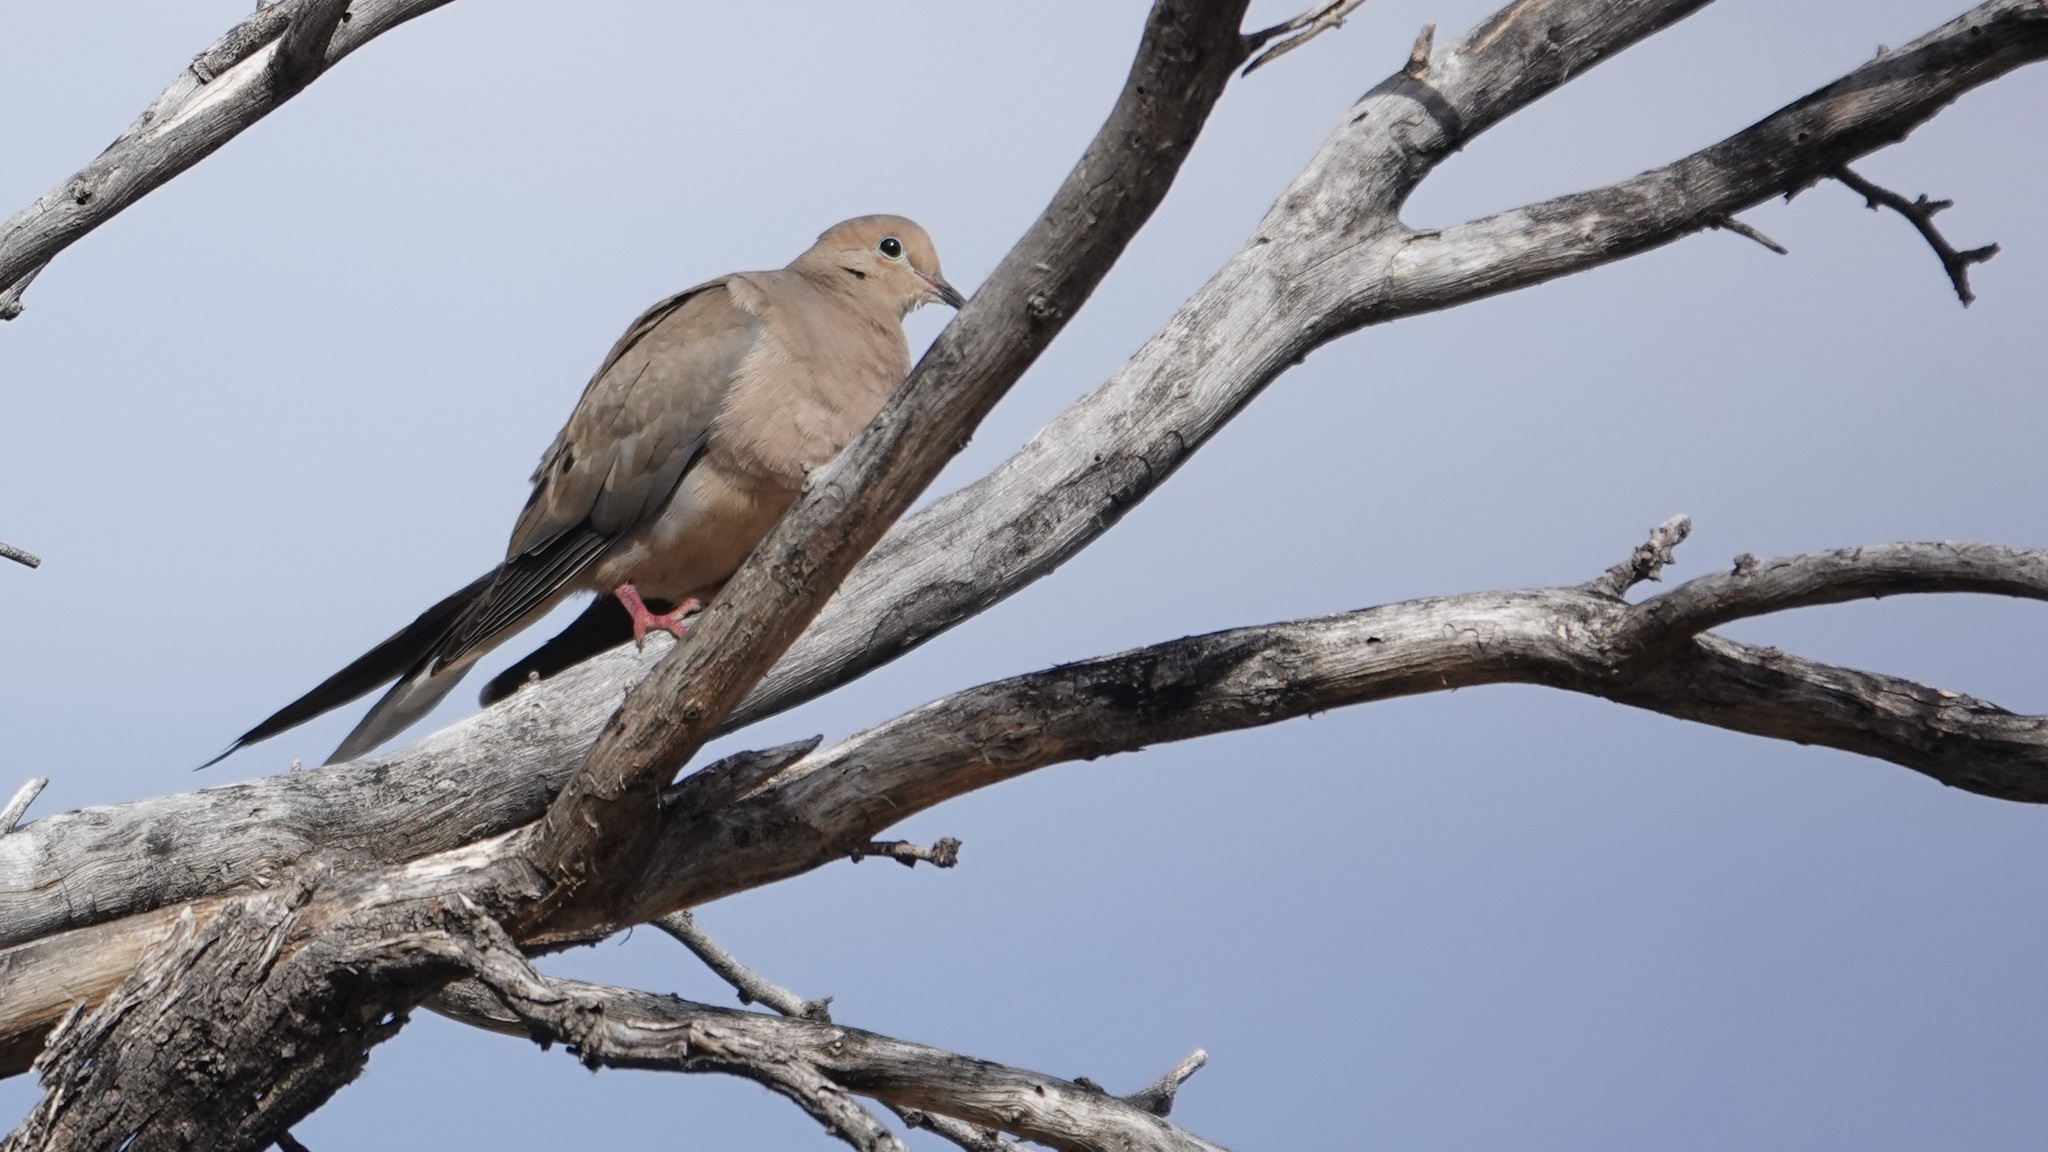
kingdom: Animalia
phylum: Chordata
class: Aves
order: Columbiformes
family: Columbidae
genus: Zenaida
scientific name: Zenaida macroura
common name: Mourning dove
